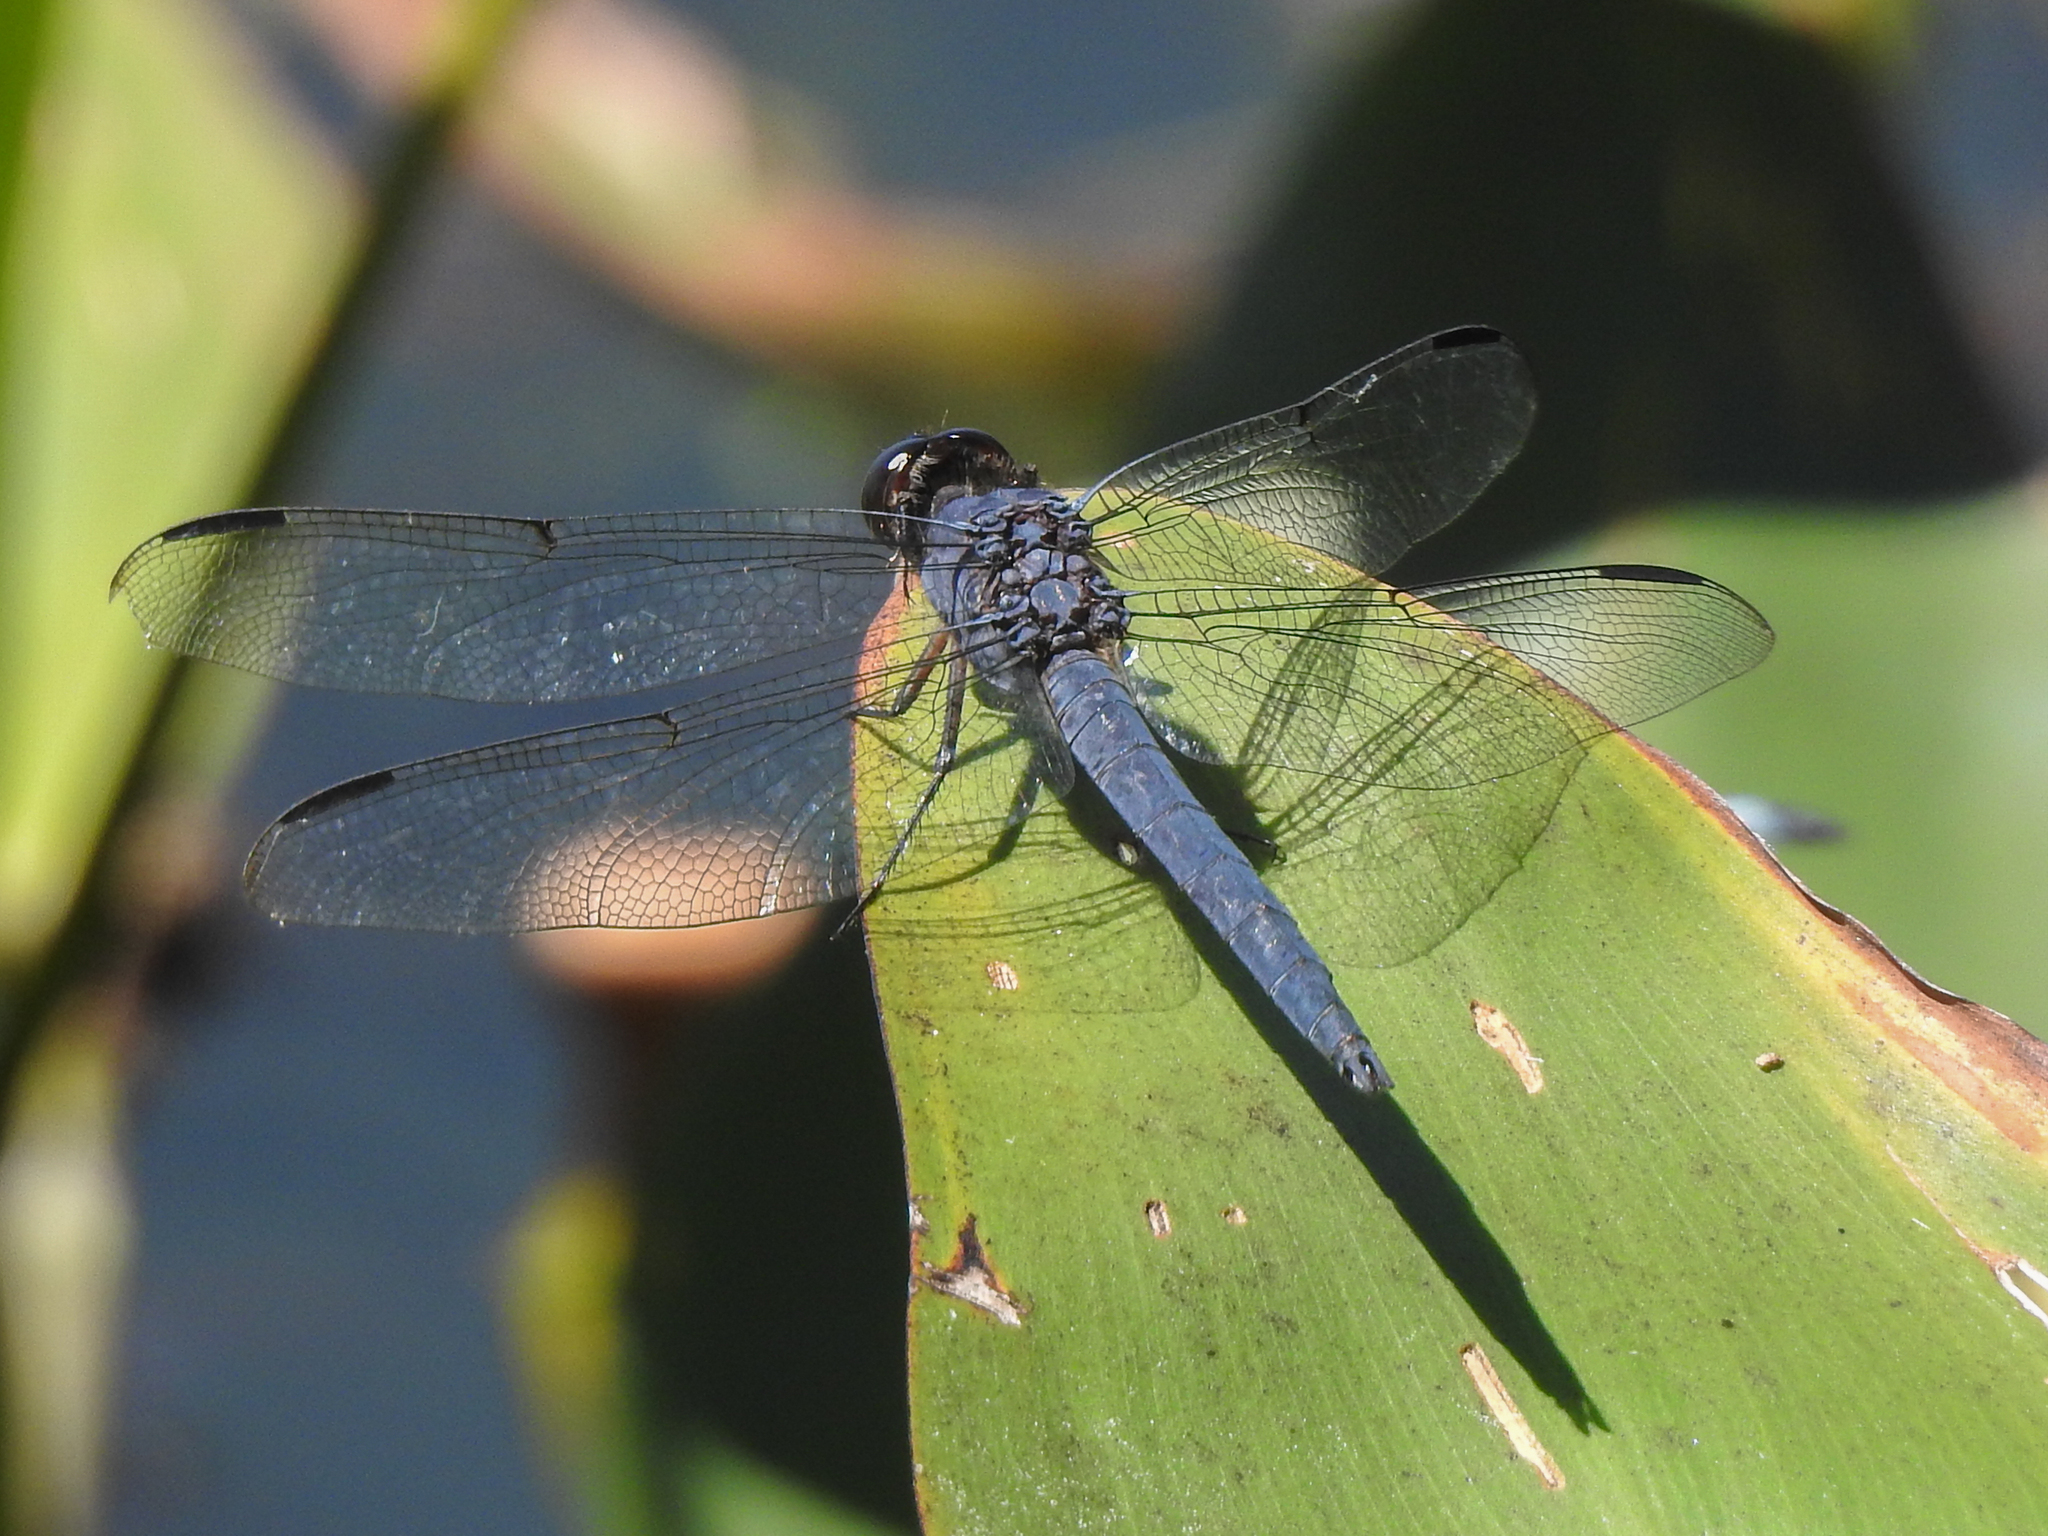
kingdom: Animalia
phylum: Arthropoda
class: Insecta
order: Odonata
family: Libellulidae
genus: Libellula
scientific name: Libellula incesta
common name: Slaty skimmer
